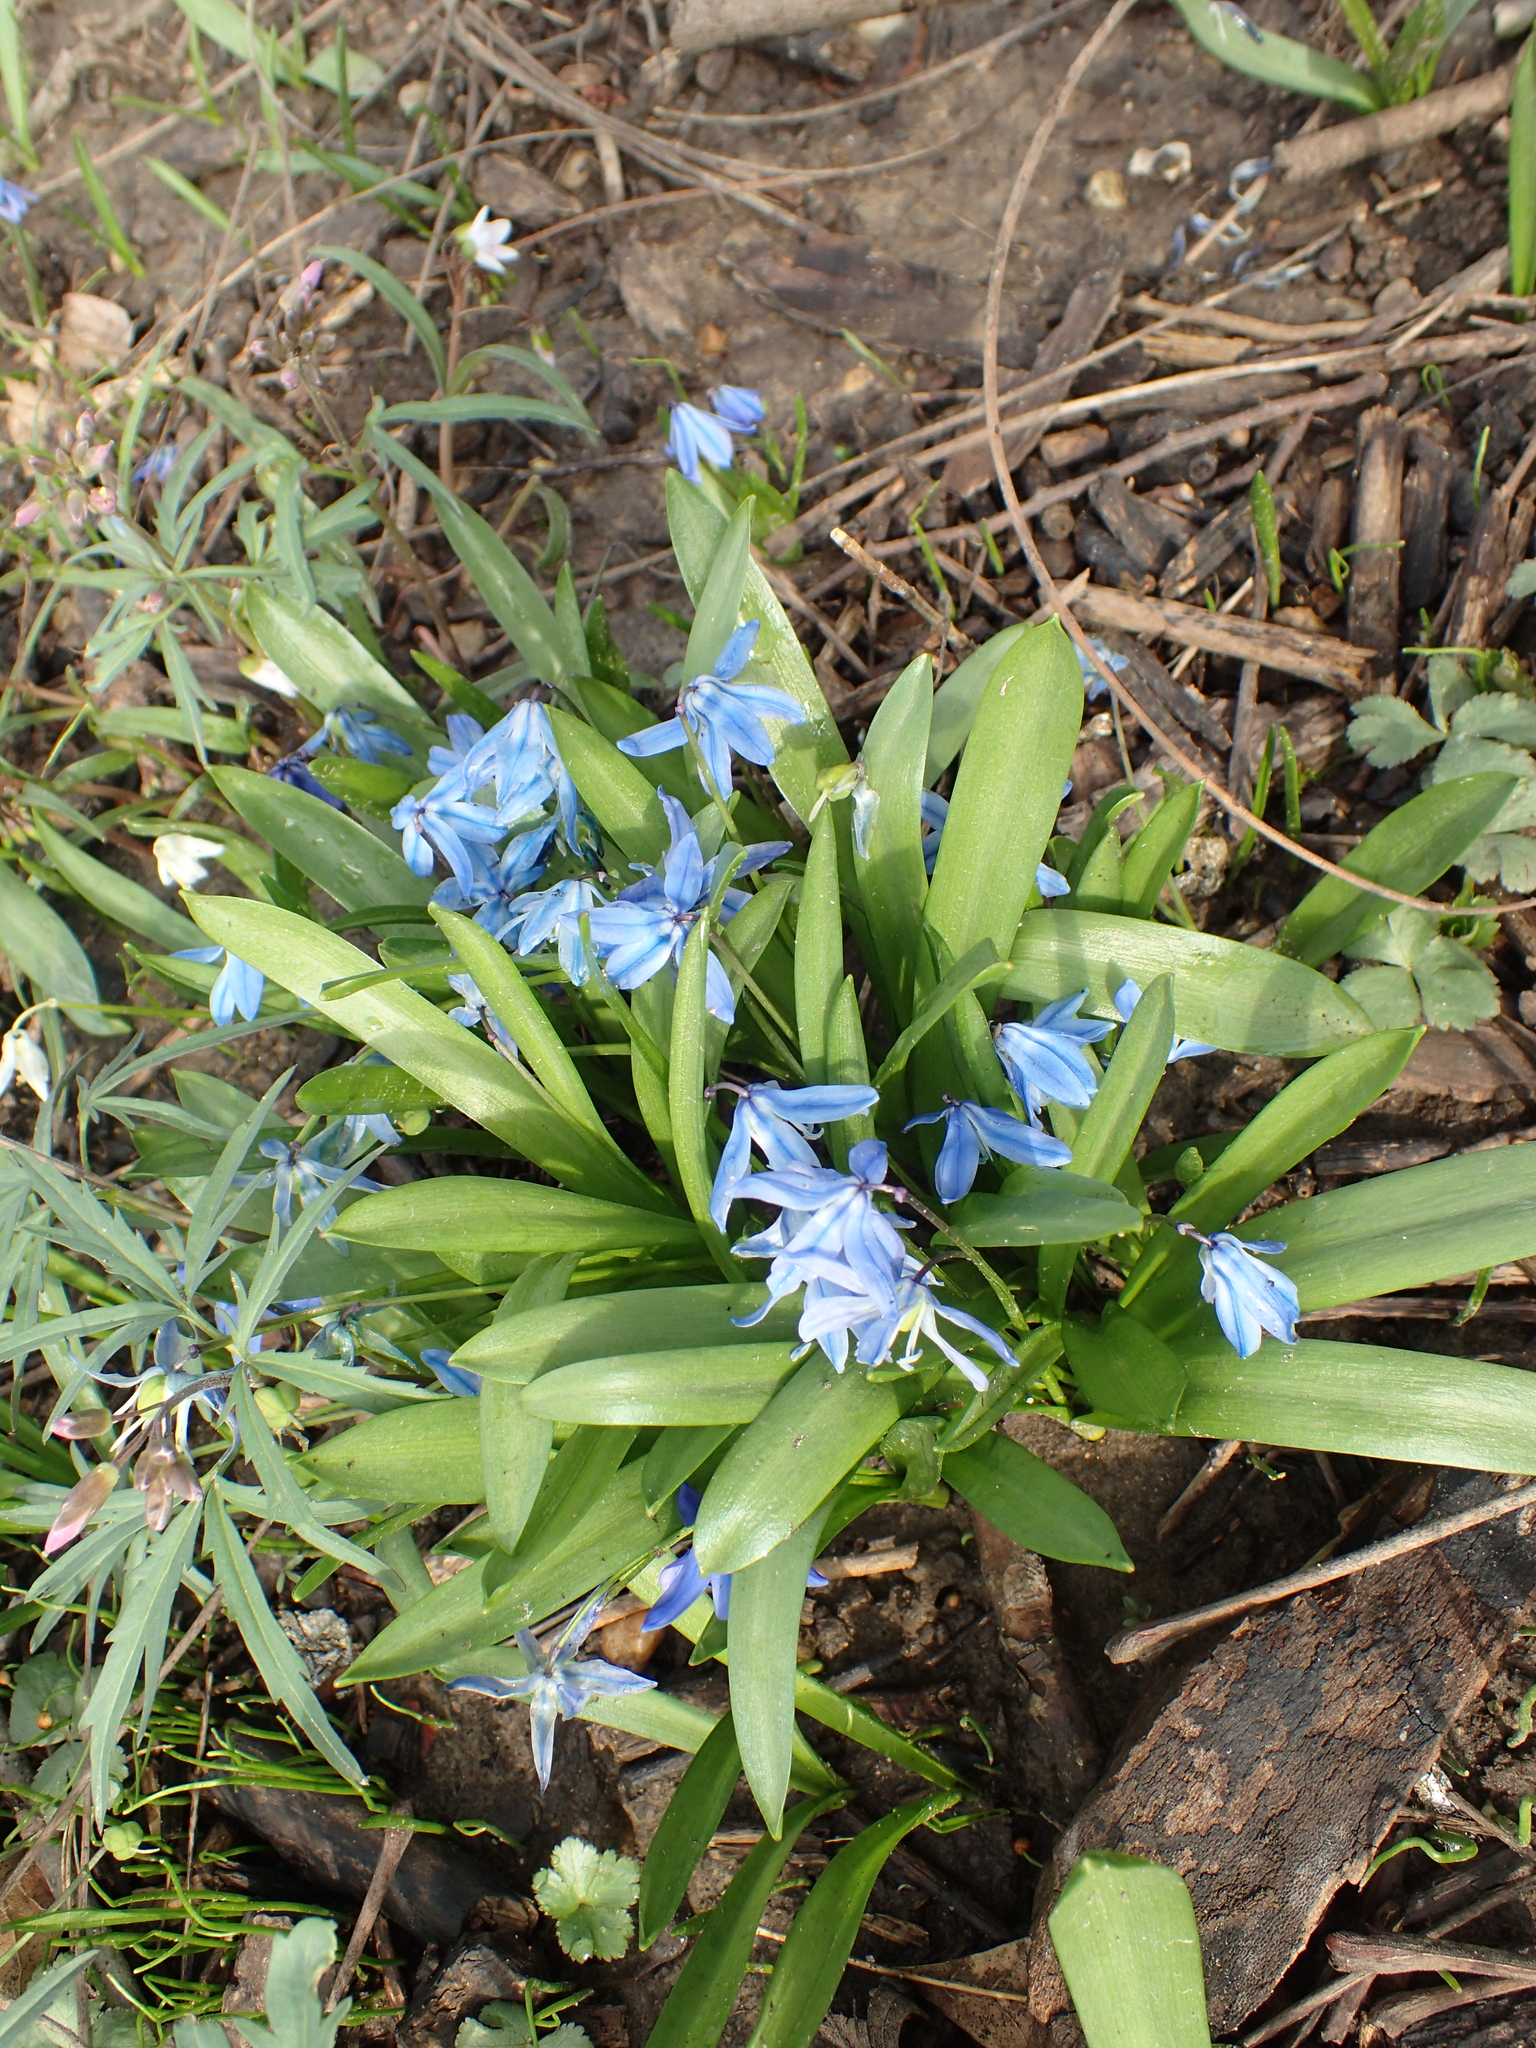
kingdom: Plantae
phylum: Tracheophyta
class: Liliopsida
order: Asparagales
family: Asparagaceae
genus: Scilla
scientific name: Scilla siberica
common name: Siberian squill
